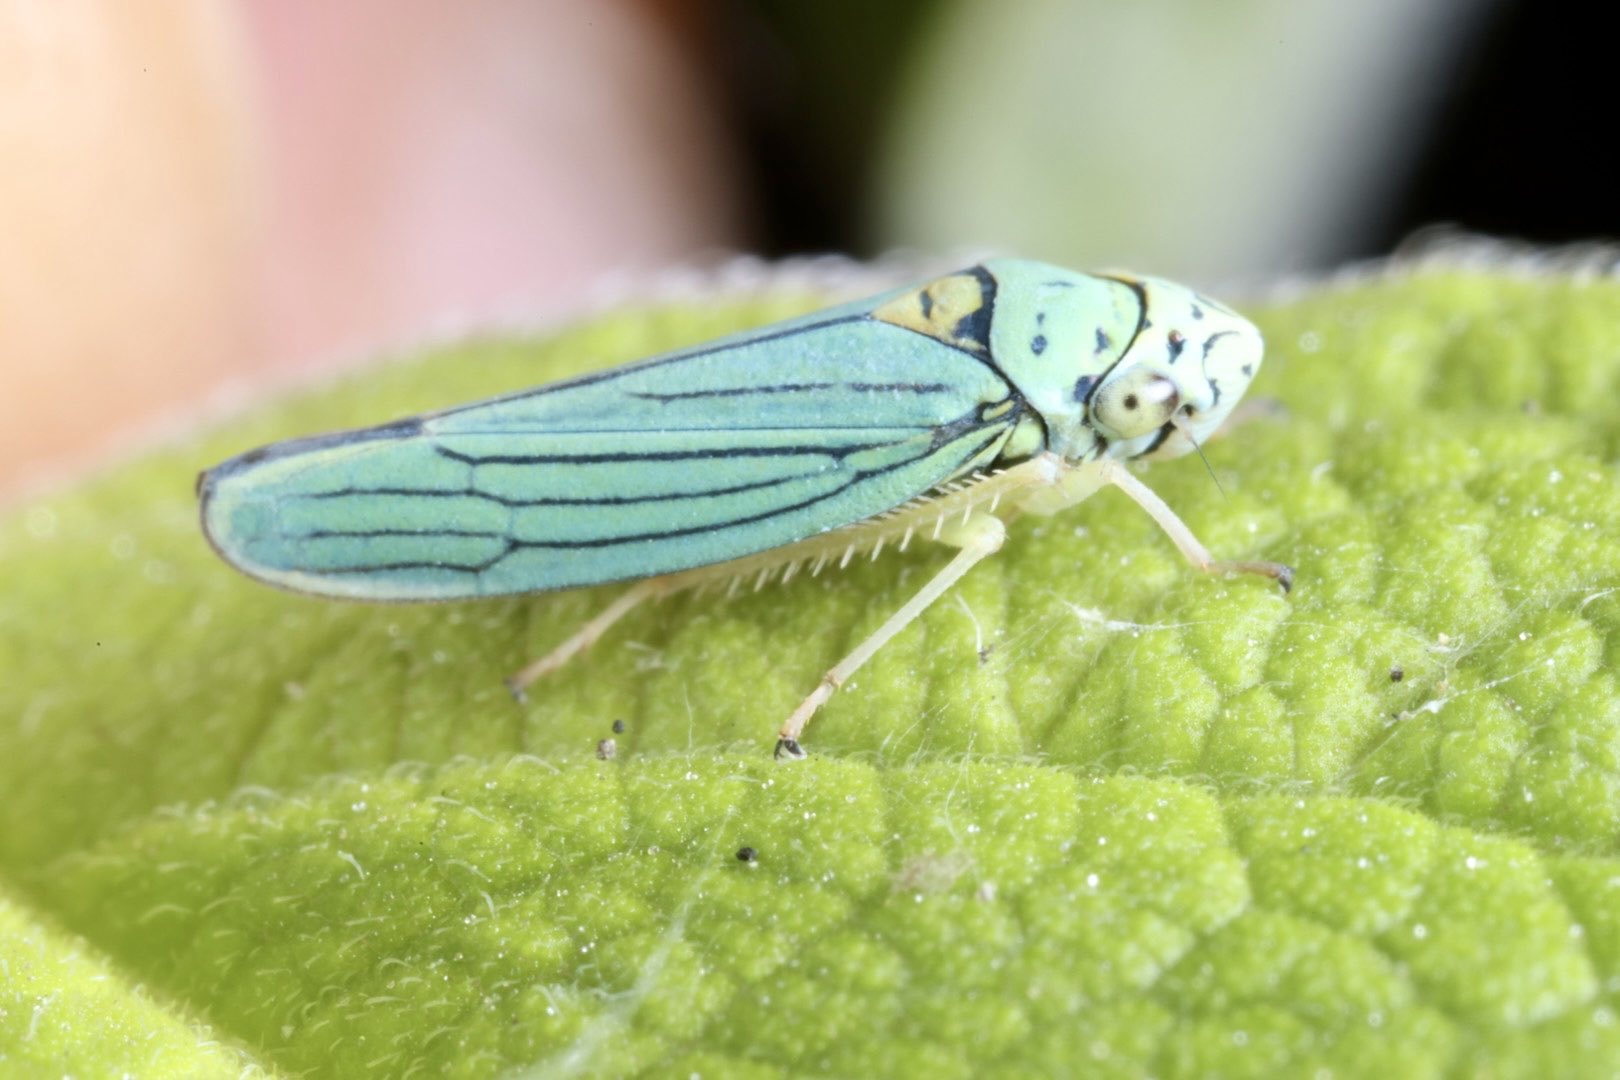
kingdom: Animalia
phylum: Arthropoda
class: Insecta
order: Hemiptera
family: Cicadellidae
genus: Graphocephala
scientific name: Graphocephala atropunctata
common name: Blue-green sharpshooter
